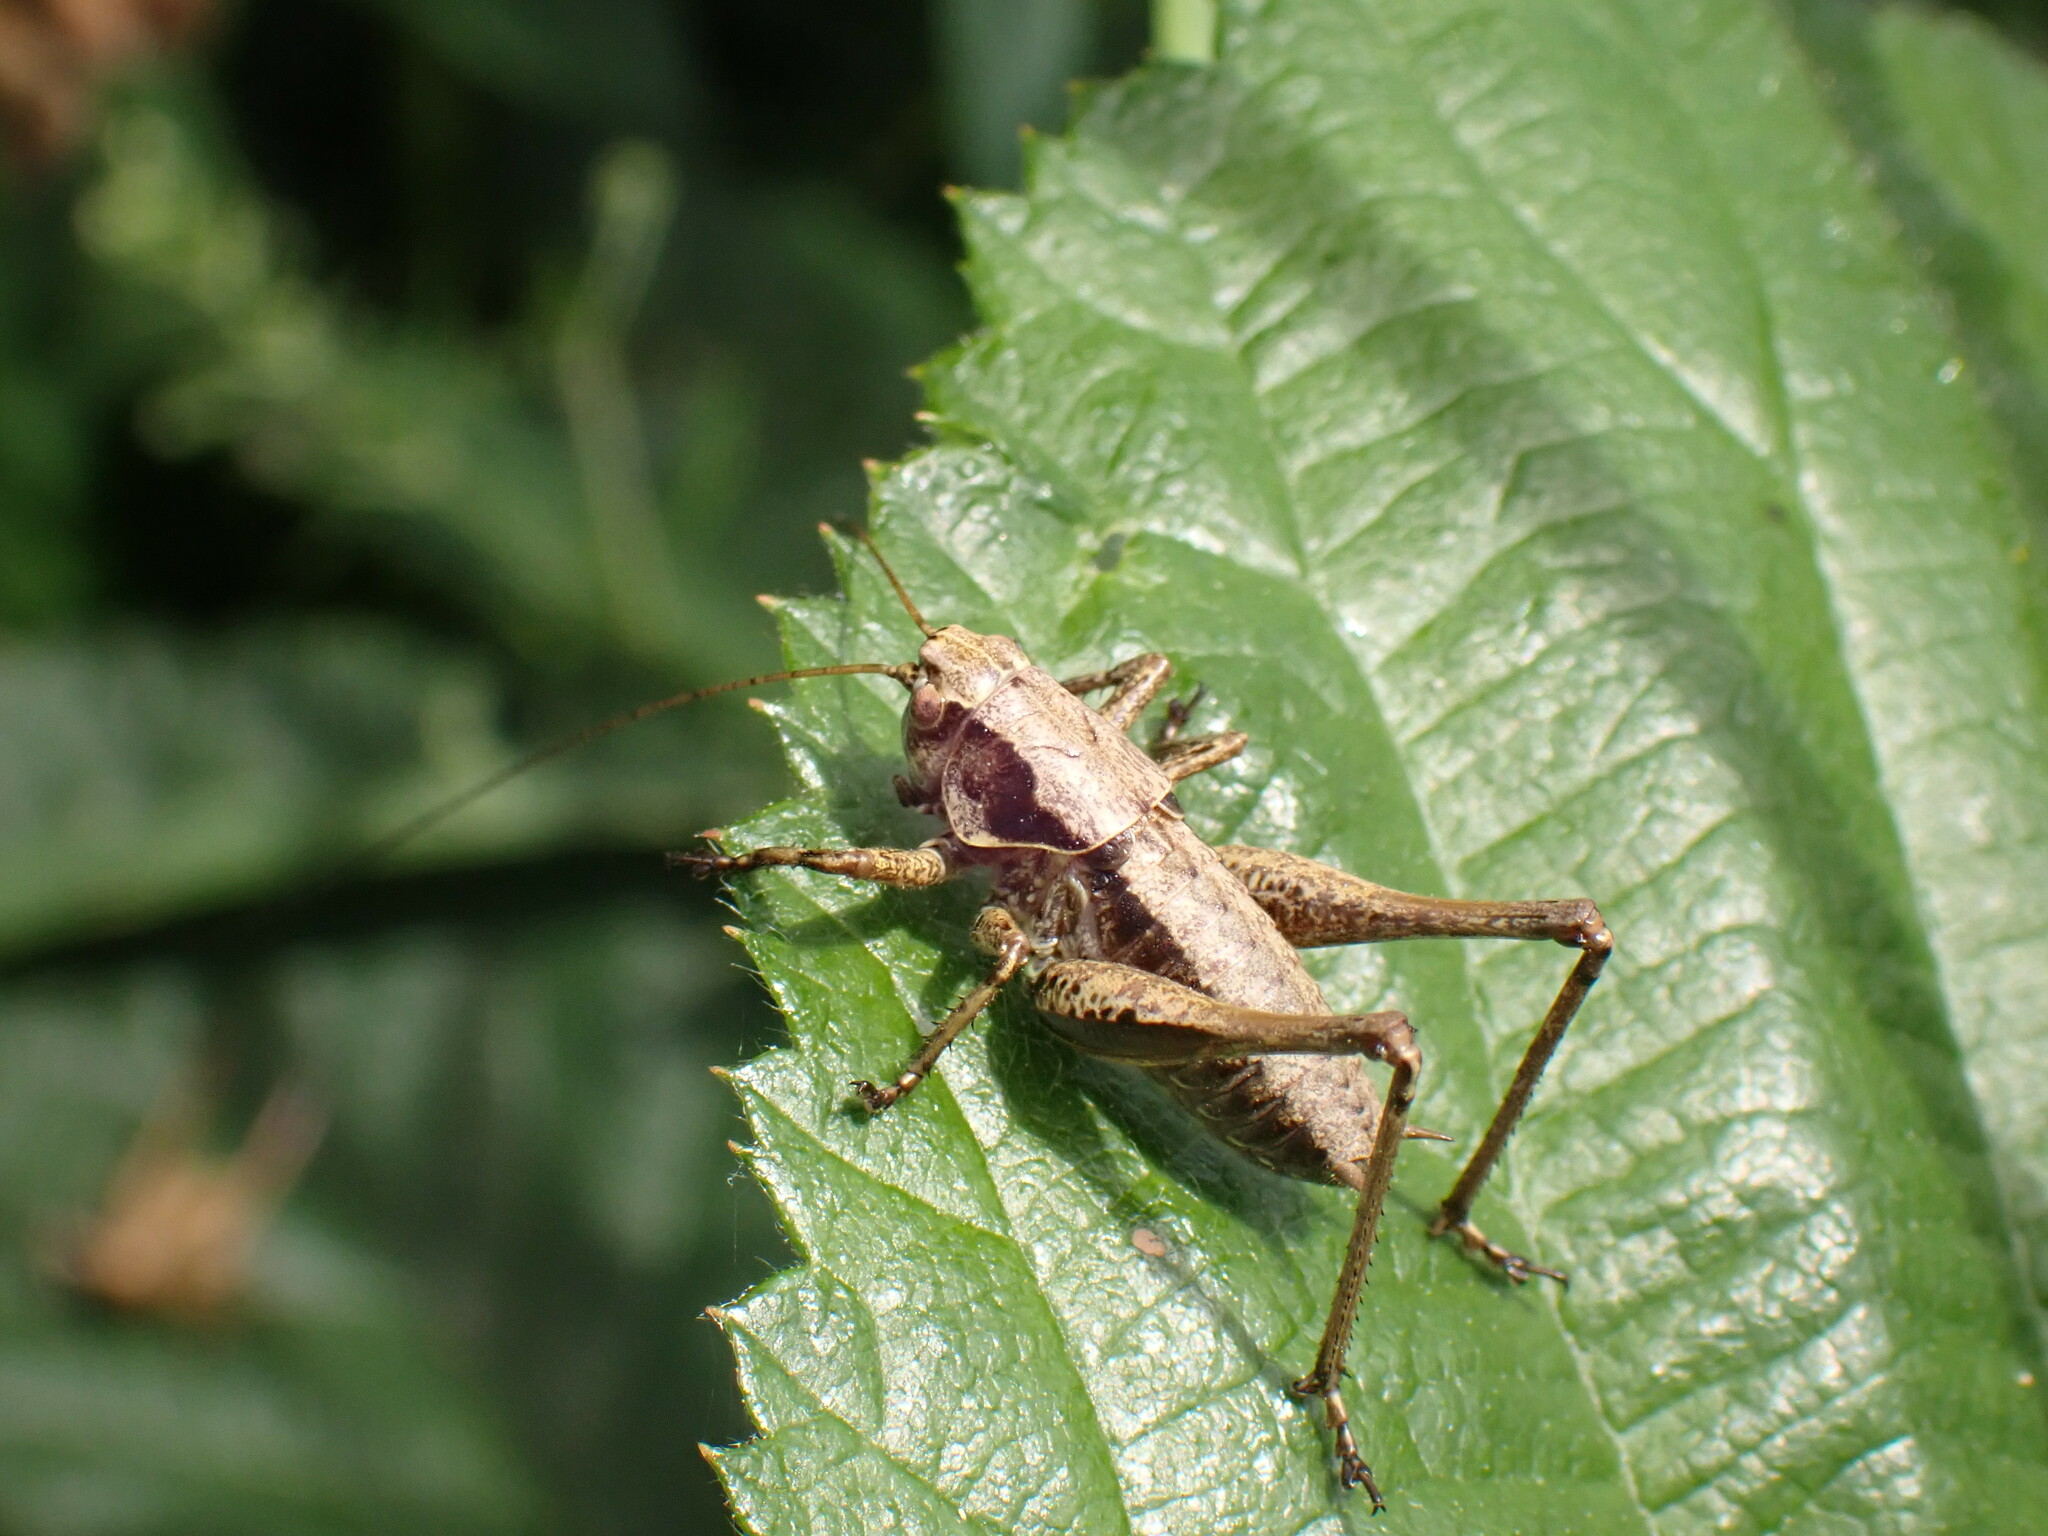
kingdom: Animalia
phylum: Arthropoda
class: Insecta
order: Orthoptera
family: Tettigoniidae
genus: Pholidoptera
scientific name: Pholidoptera griseoaptera
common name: Dark bush-cricket
